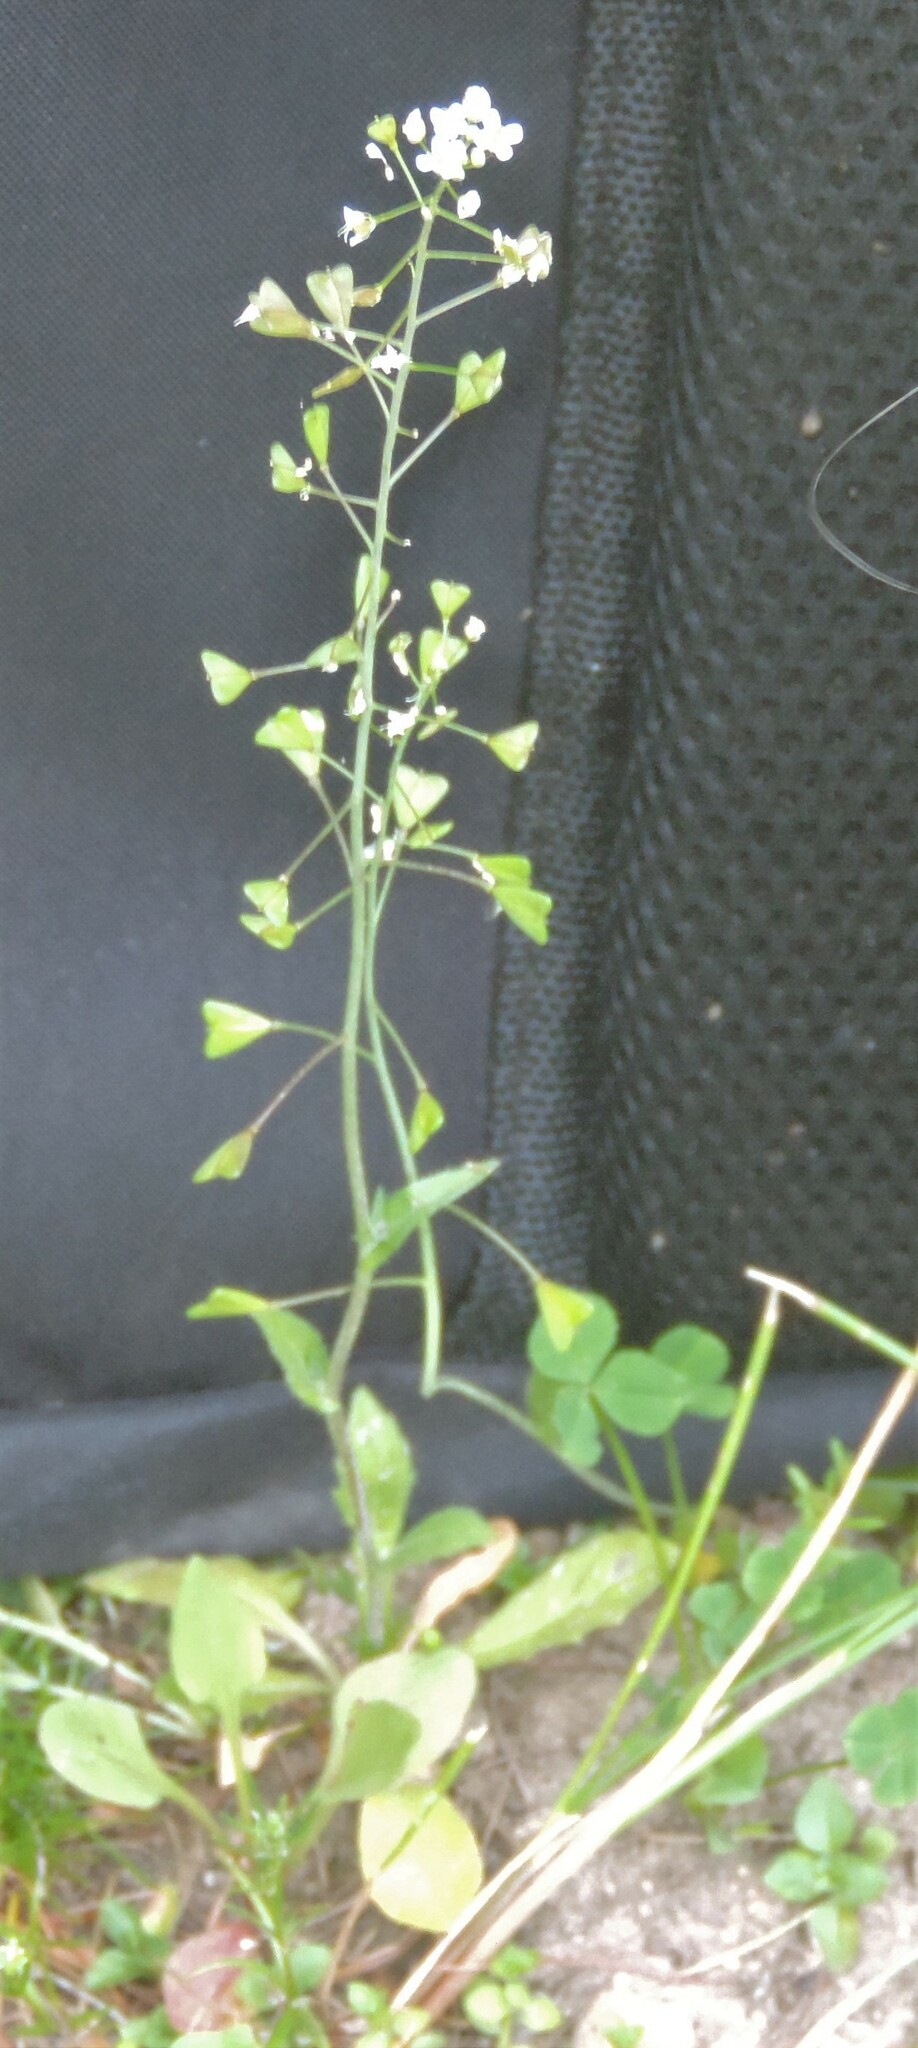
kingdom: Plantae
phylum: Tracheophyta
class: Magnoliopsida
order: Brassicales
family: Brassicaceae
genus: Capsella
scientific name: Capsella bursa-pastoris
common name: Shepherd's purse
